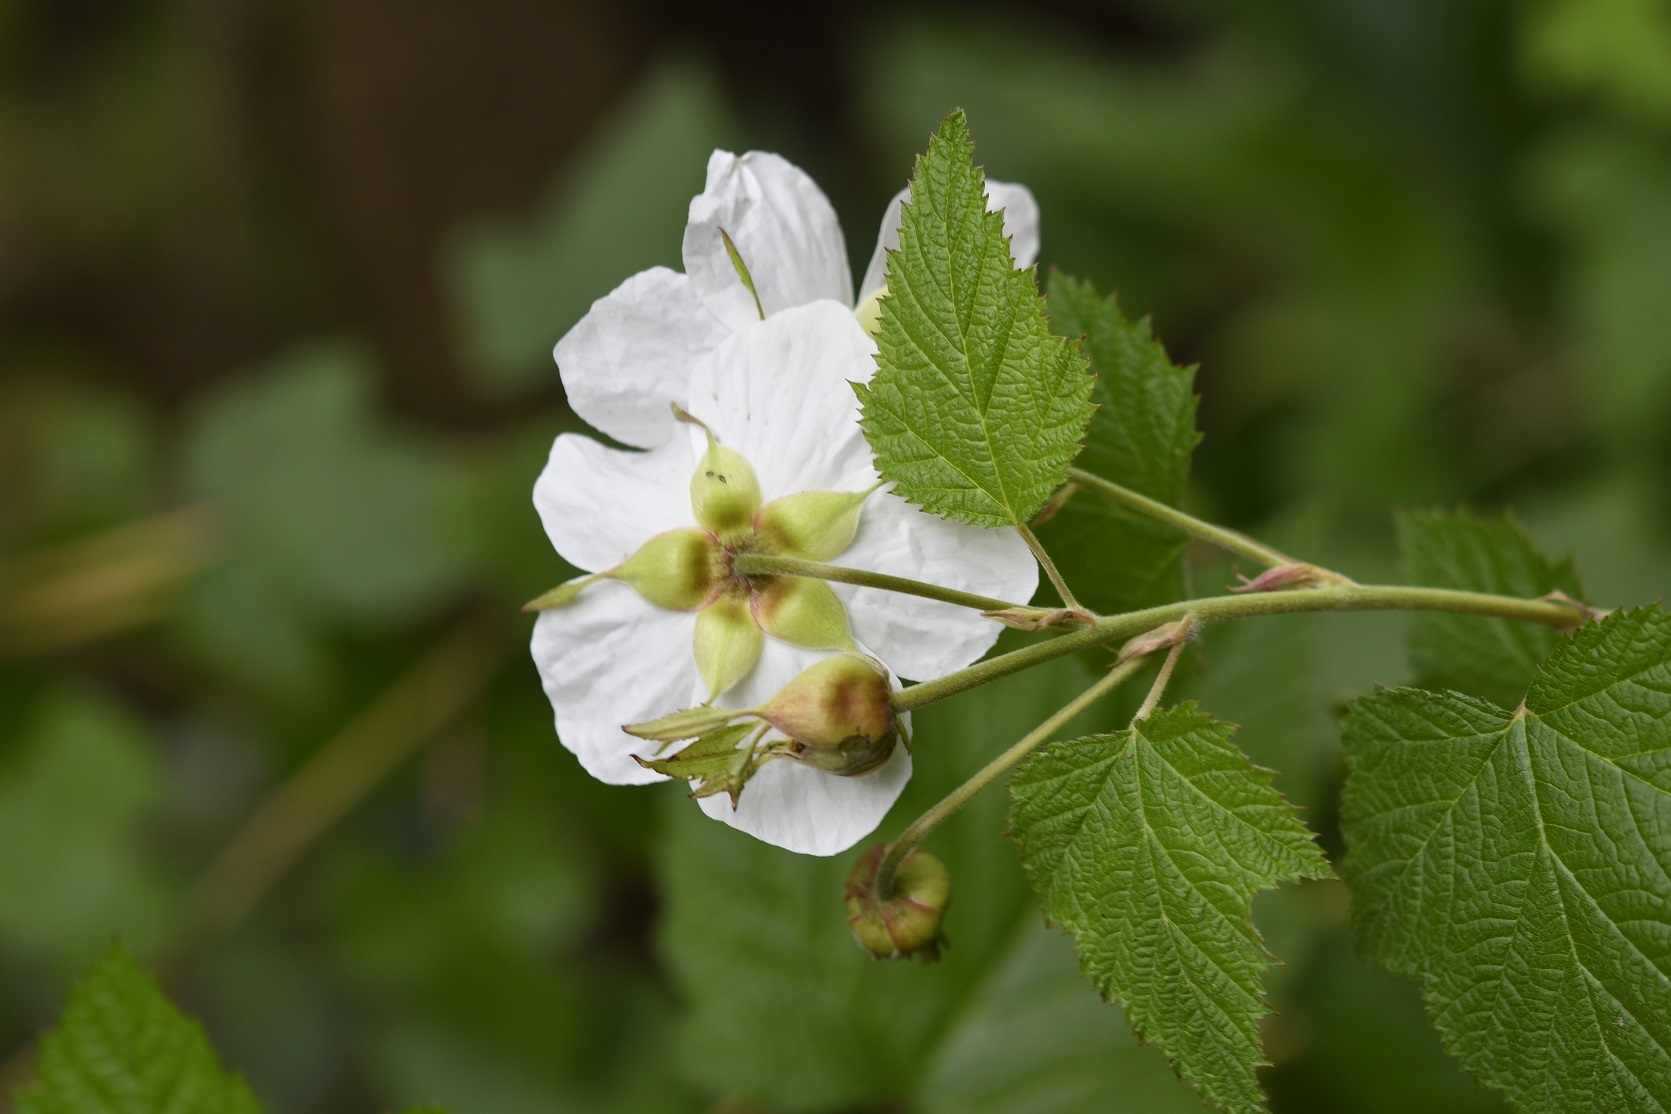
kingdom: Plantae
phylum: Tracheophyta
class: Magnoliopsida
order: Rosales
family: Rosaceae
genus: Rubus
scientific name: Rubus trilobus
